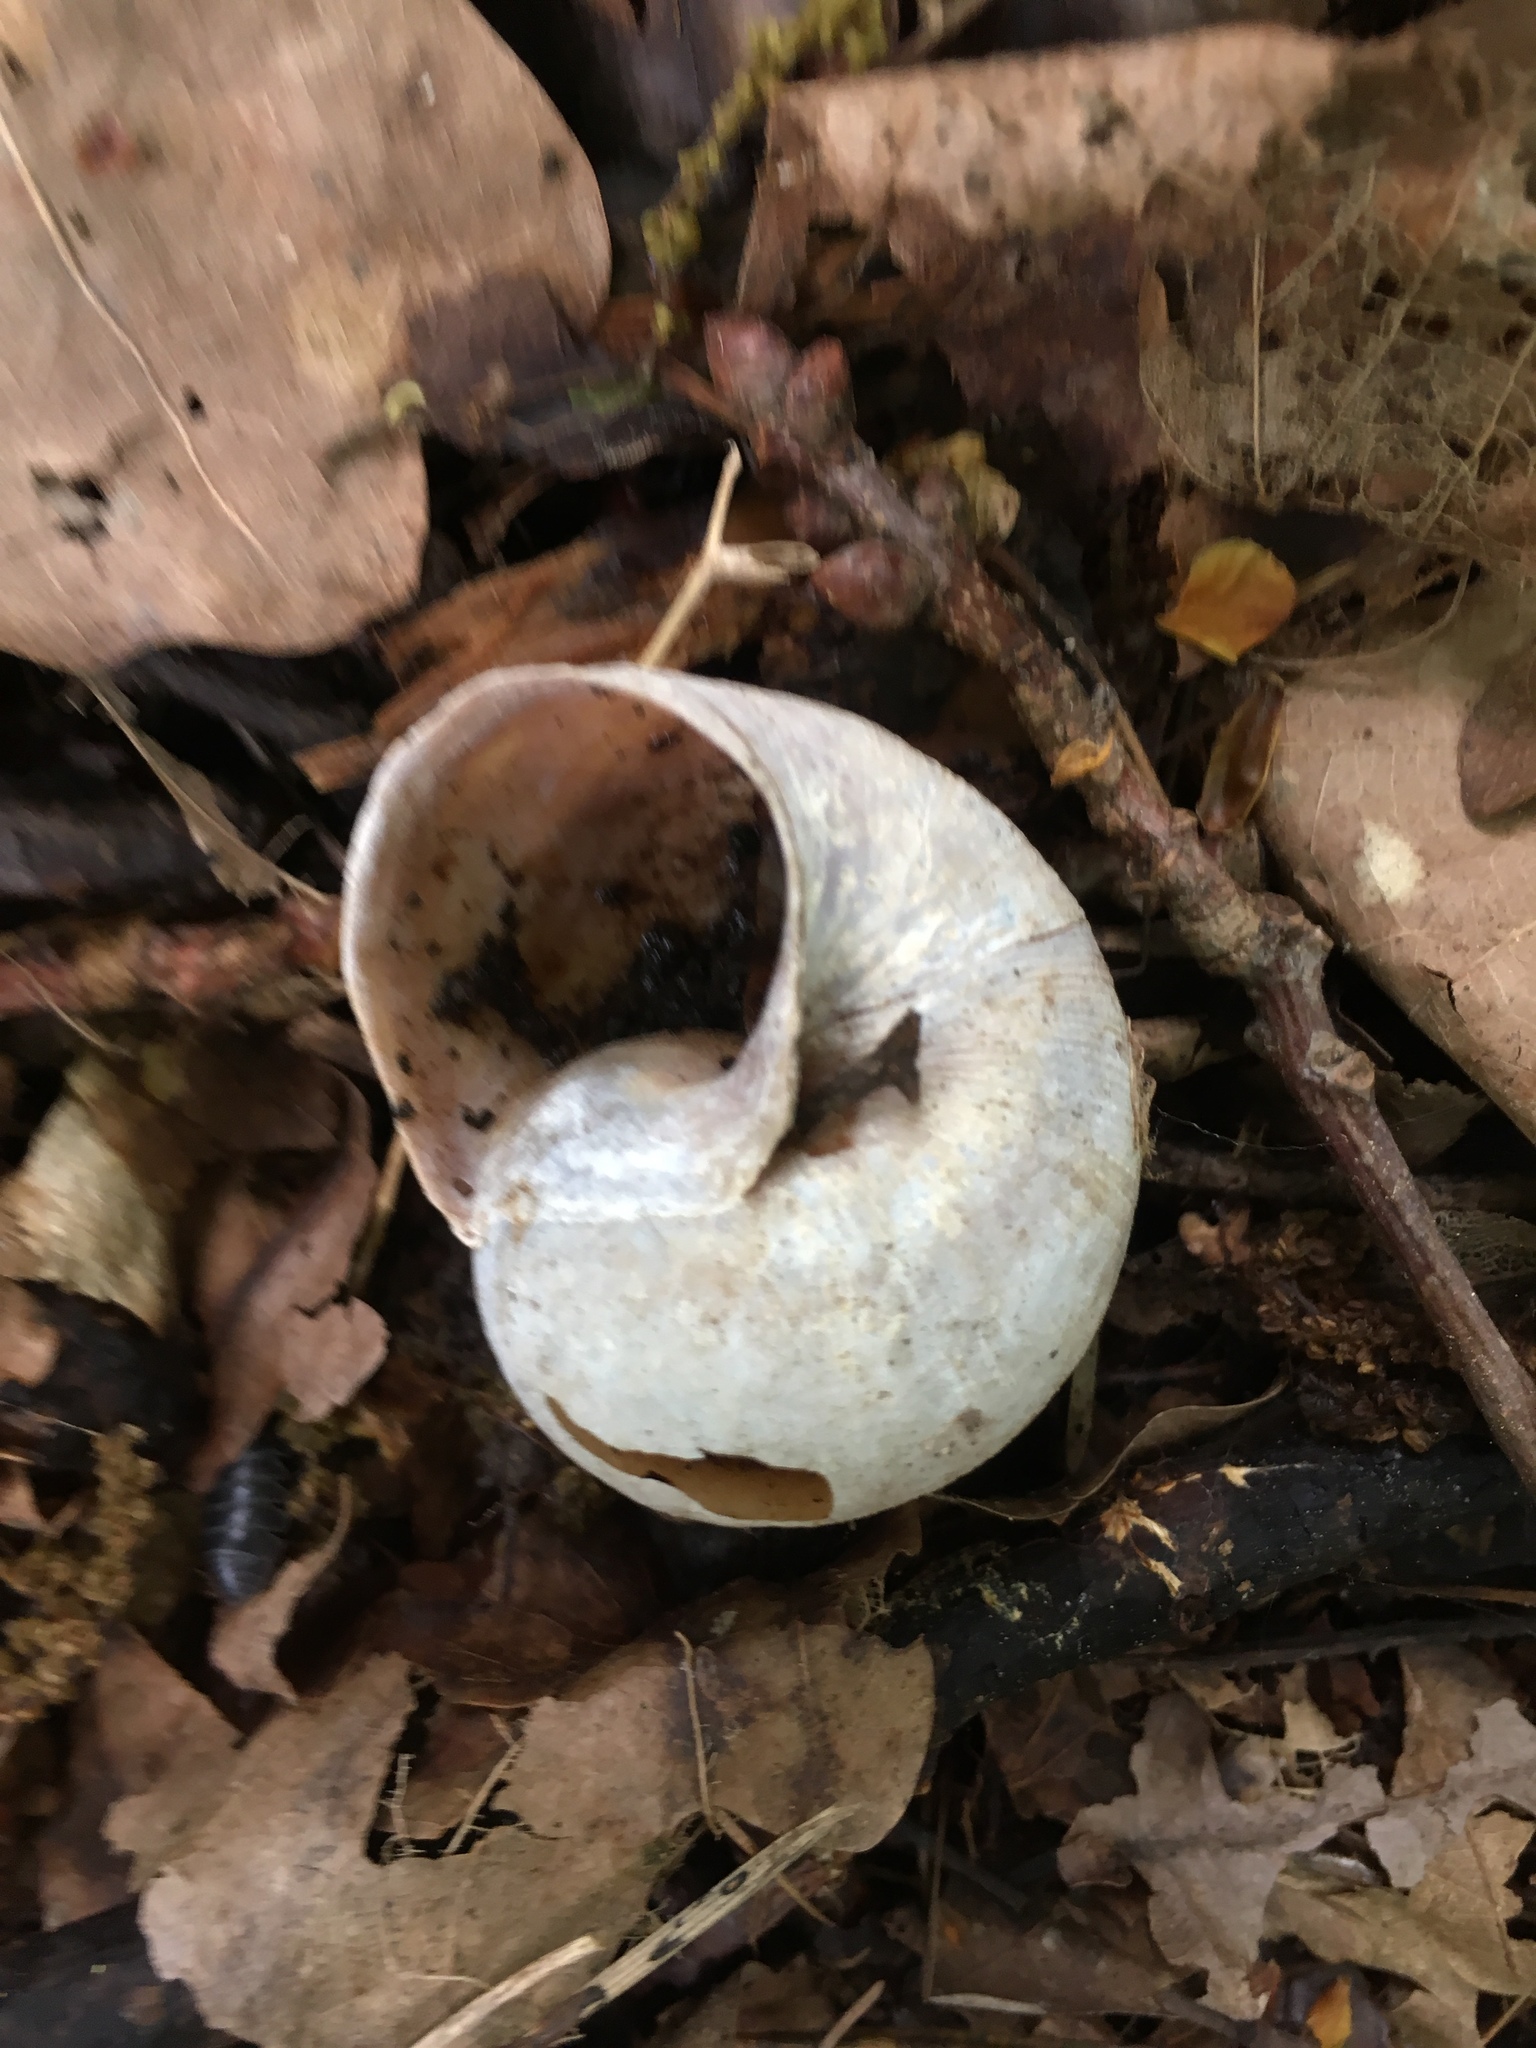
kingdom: Animalia
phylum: Mollusca
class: Gastropoda
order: Stylommatophora
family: Helicidae
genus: Helix
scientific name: Helix pomatia
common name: Roman snail
